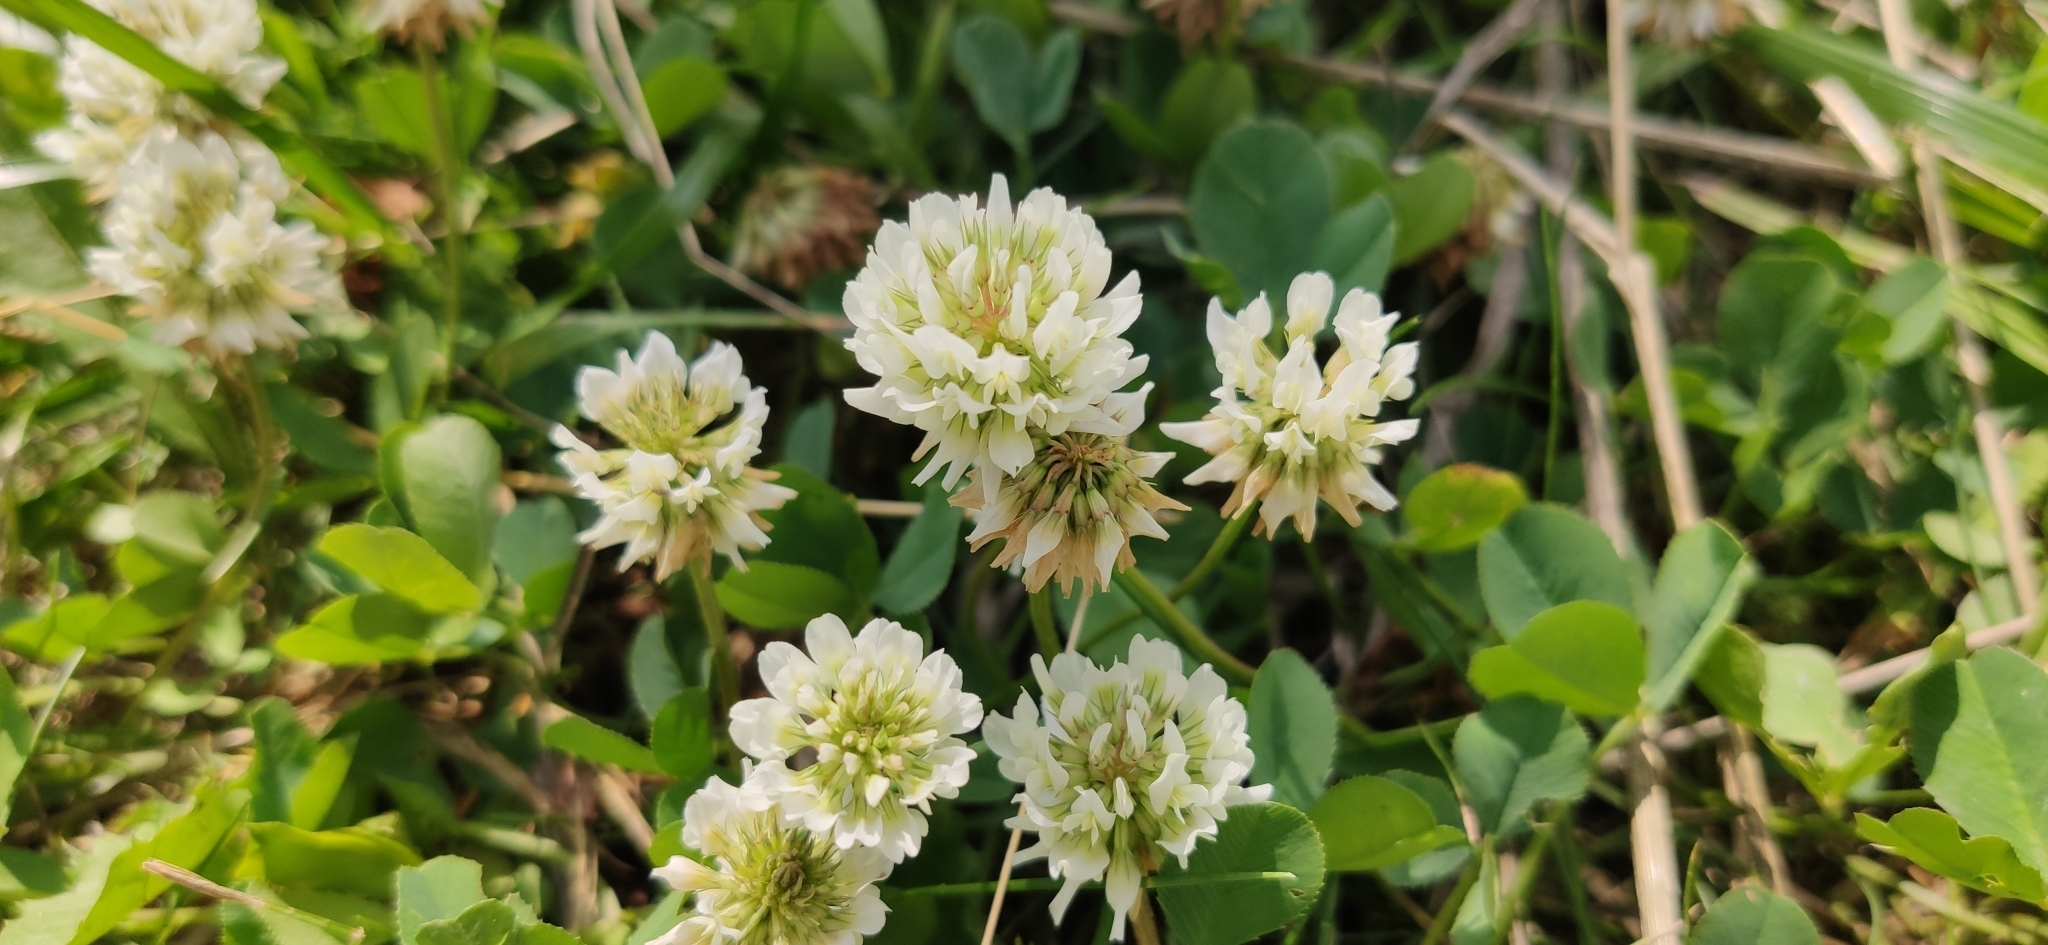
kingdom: Plantae
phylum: Tracheophyta
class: Magnoliopsida
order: Fabales
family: Fabaceae
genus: Trifolium
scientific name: Trifolium repens
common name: White clover
